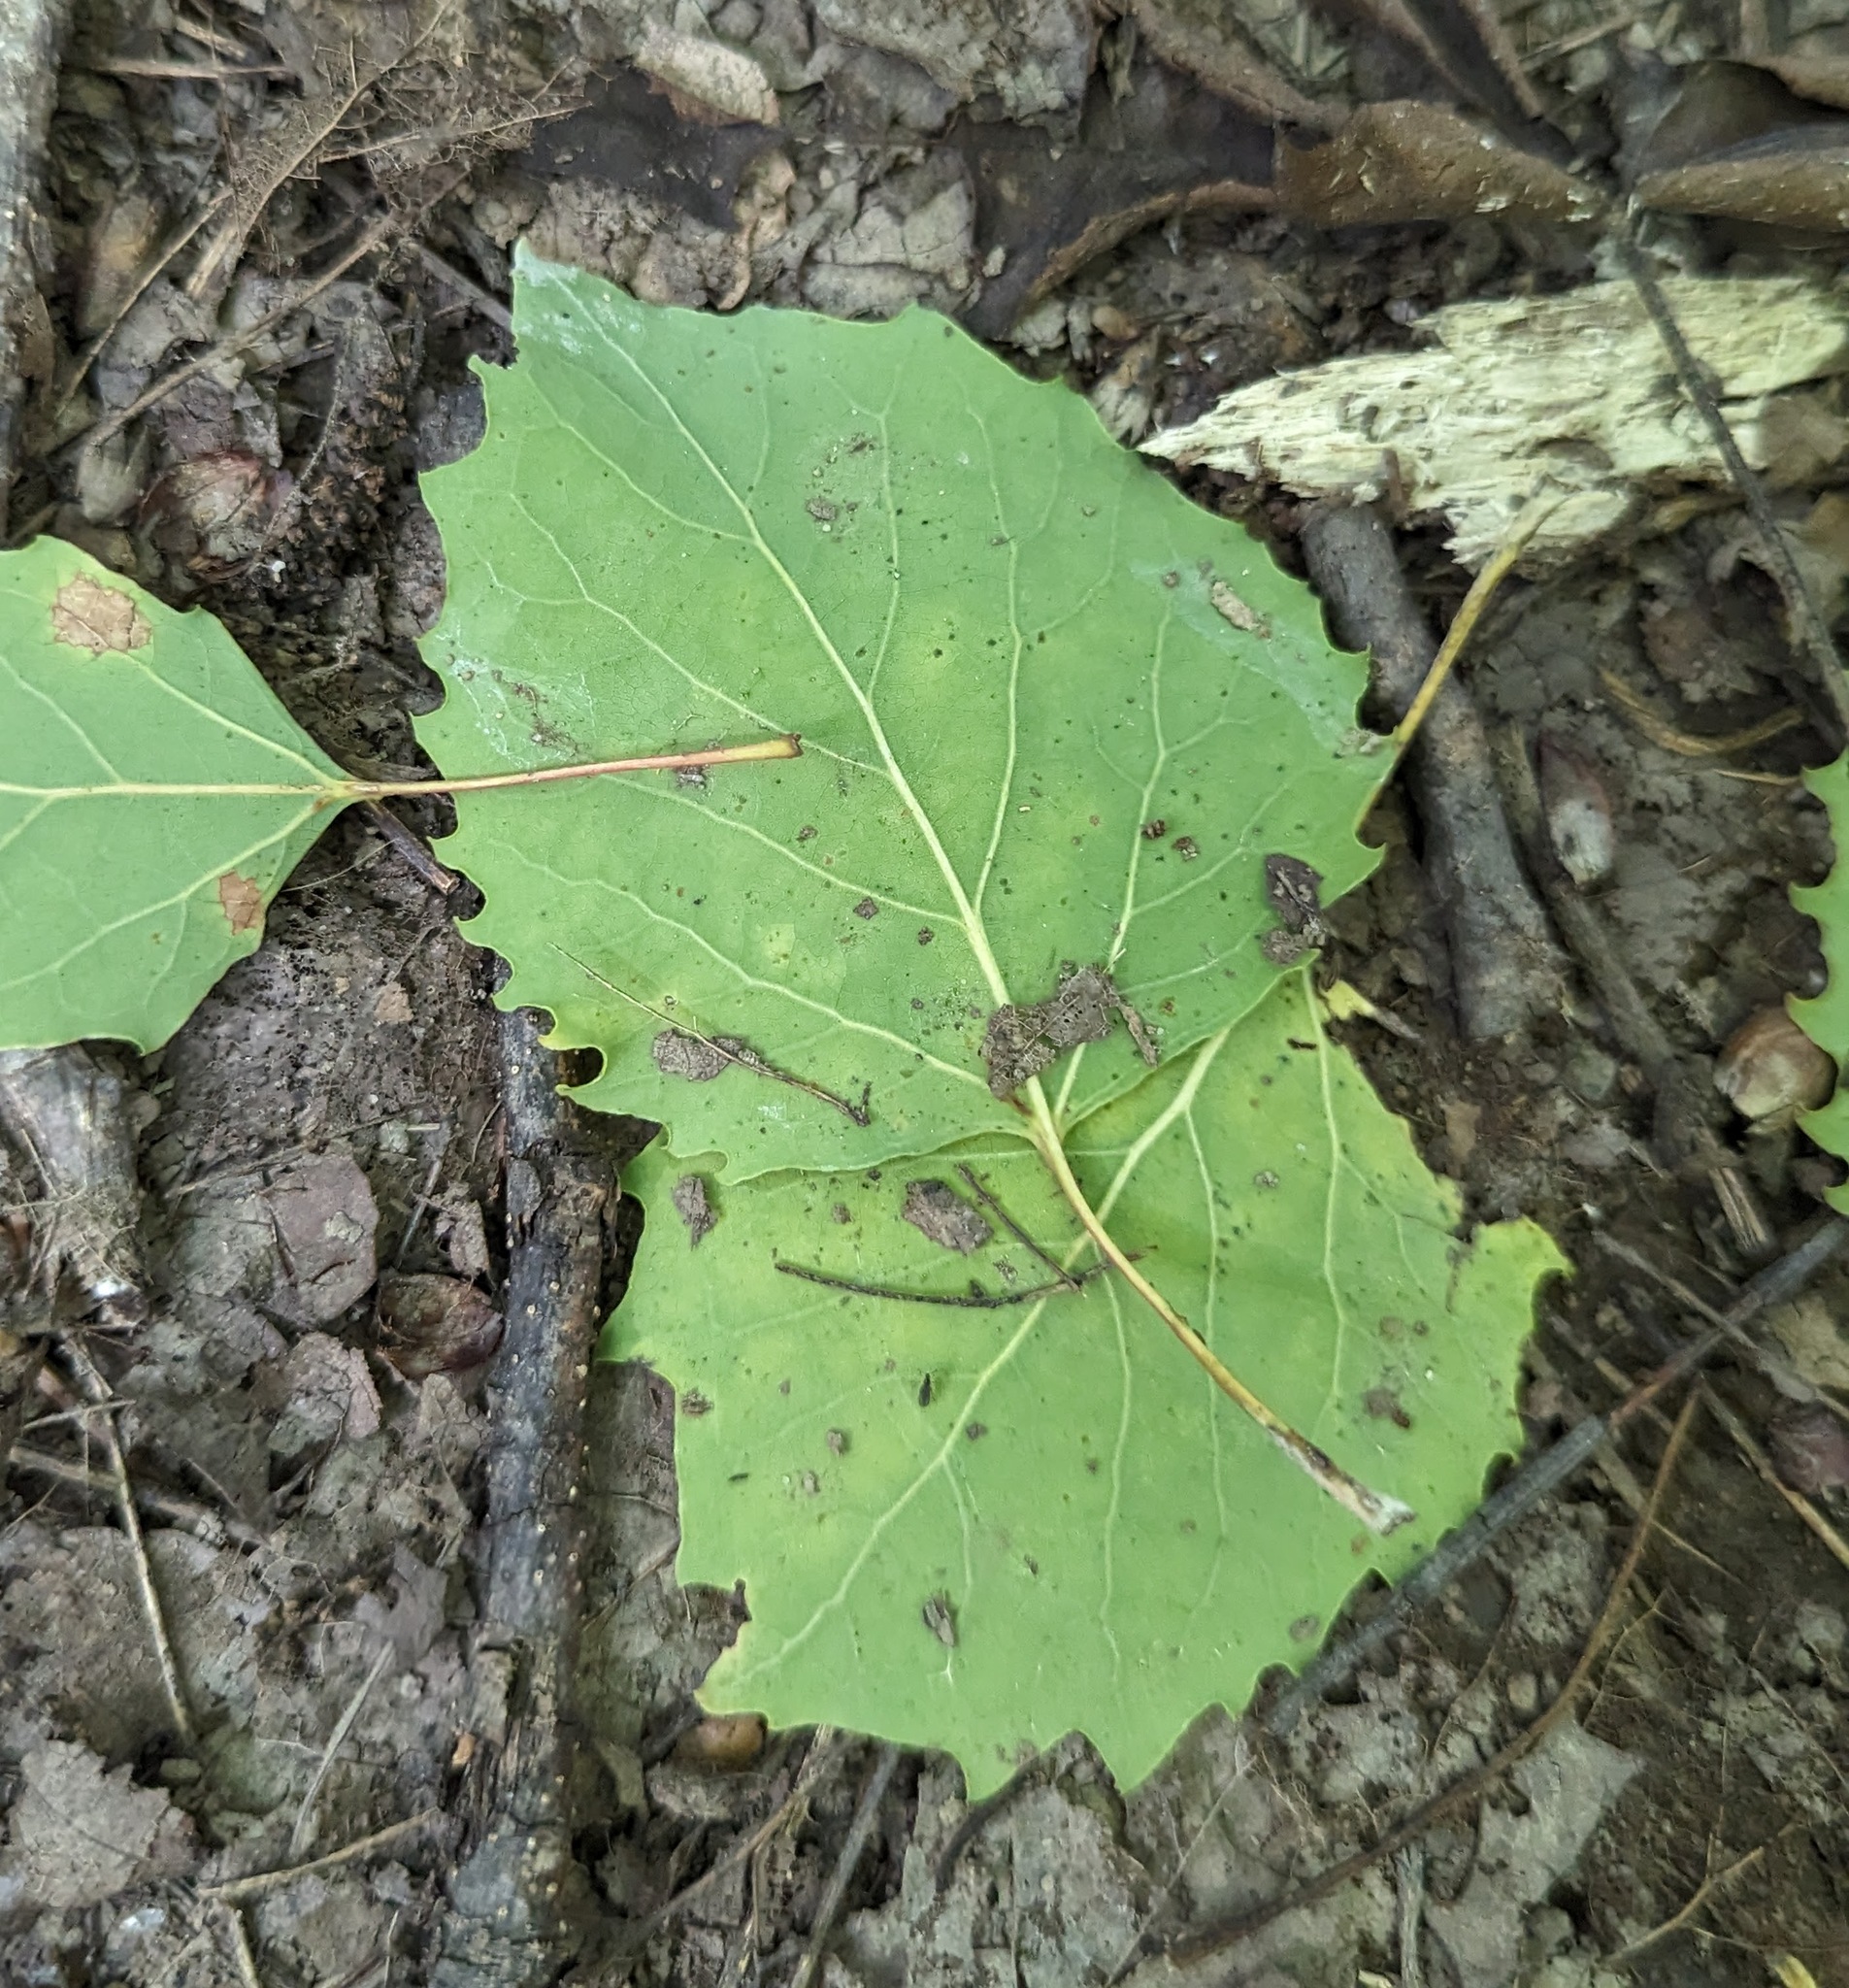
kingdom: Plantae
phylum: Tracheophyta
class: Magnoliopsida
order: Malpighiales
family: Salicaceae
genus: Populus
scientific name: Populus grandidentata
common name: Bigtooth aspen
